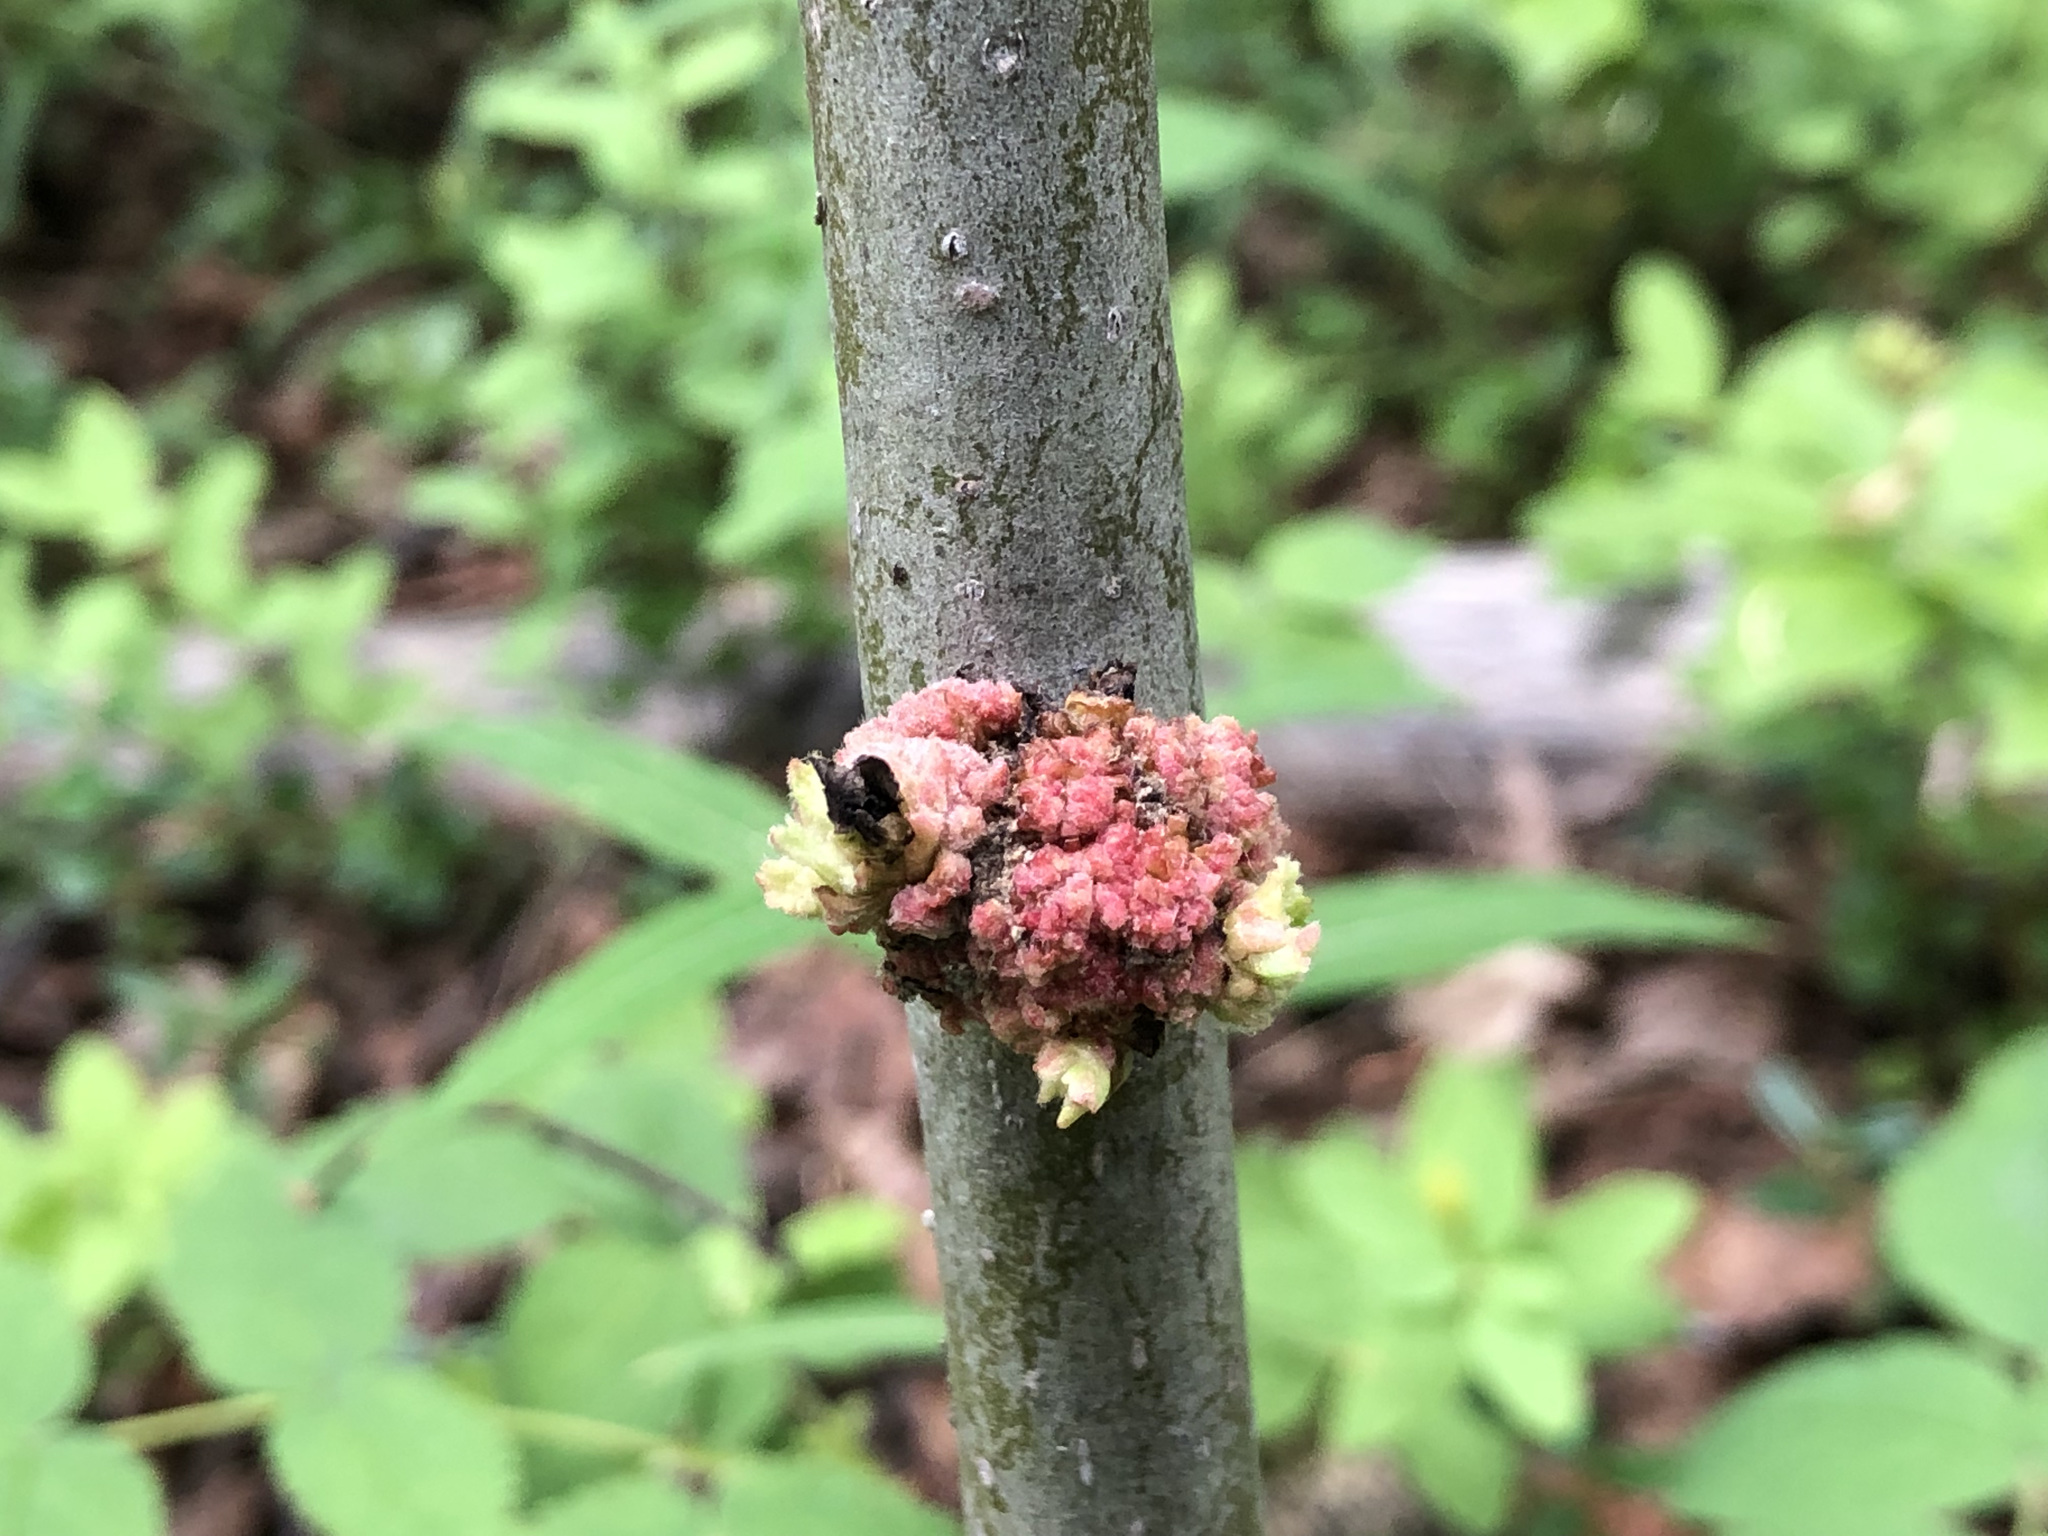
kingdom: Animalia
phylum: Arthropoda
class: Arachnida
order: Trombidiformes
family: Eriophyidae
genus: Aceria
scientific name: Aceria
